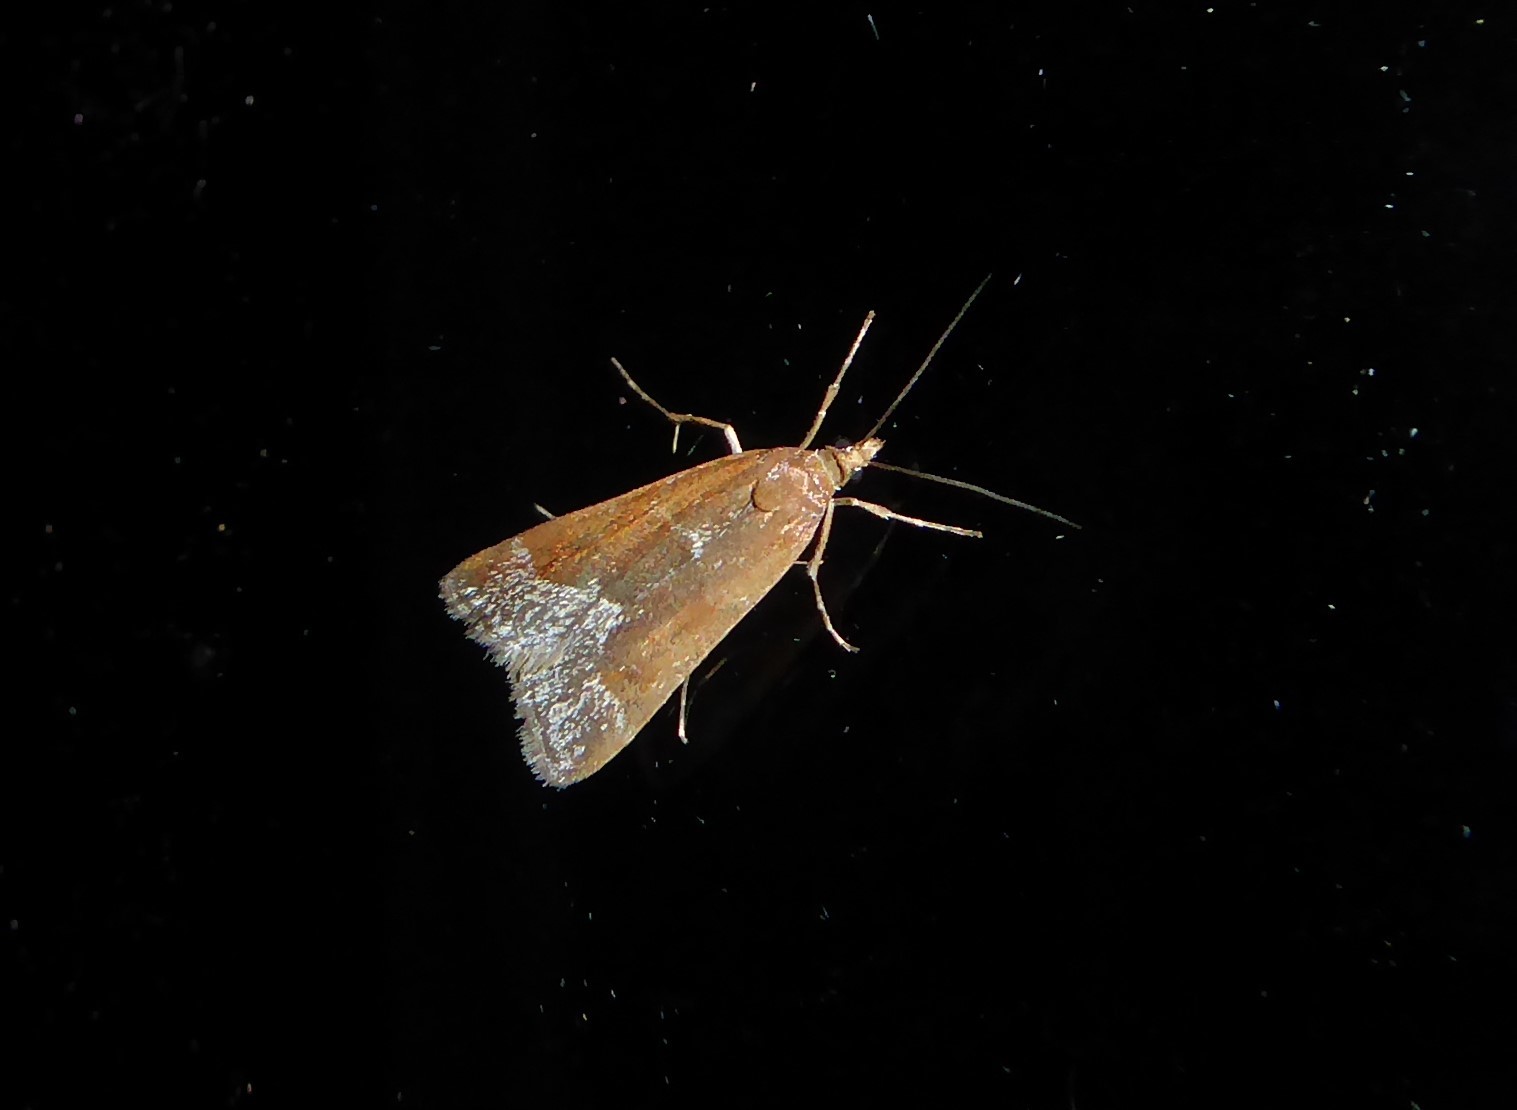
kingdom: Animalia
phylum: Arthropoda
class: Insecta
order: Lepidoptera
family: Crambidae
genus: Eudonia
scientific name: Eudonia feredayi
